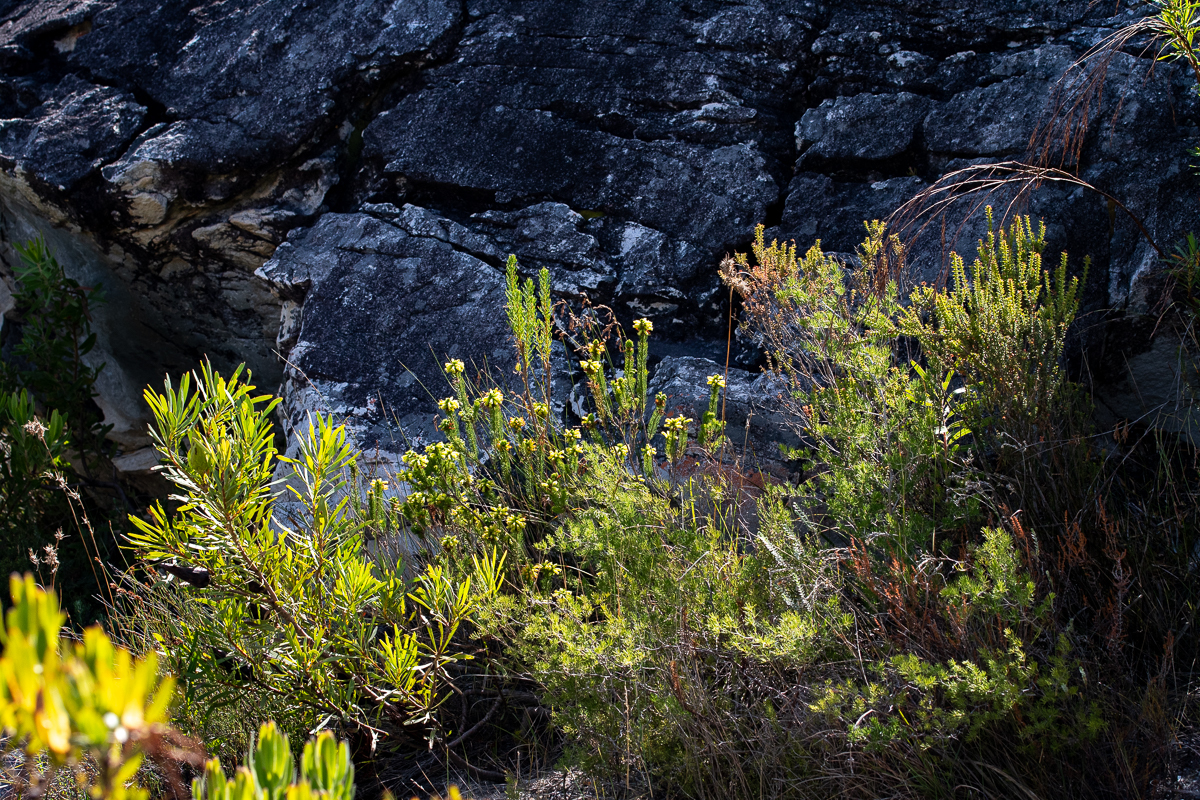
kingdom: Plantae
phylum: Tracheophyta
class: Magnoliopsida
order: Ericales
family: Ericaceae
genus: Erica
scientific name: Erica viscaria
